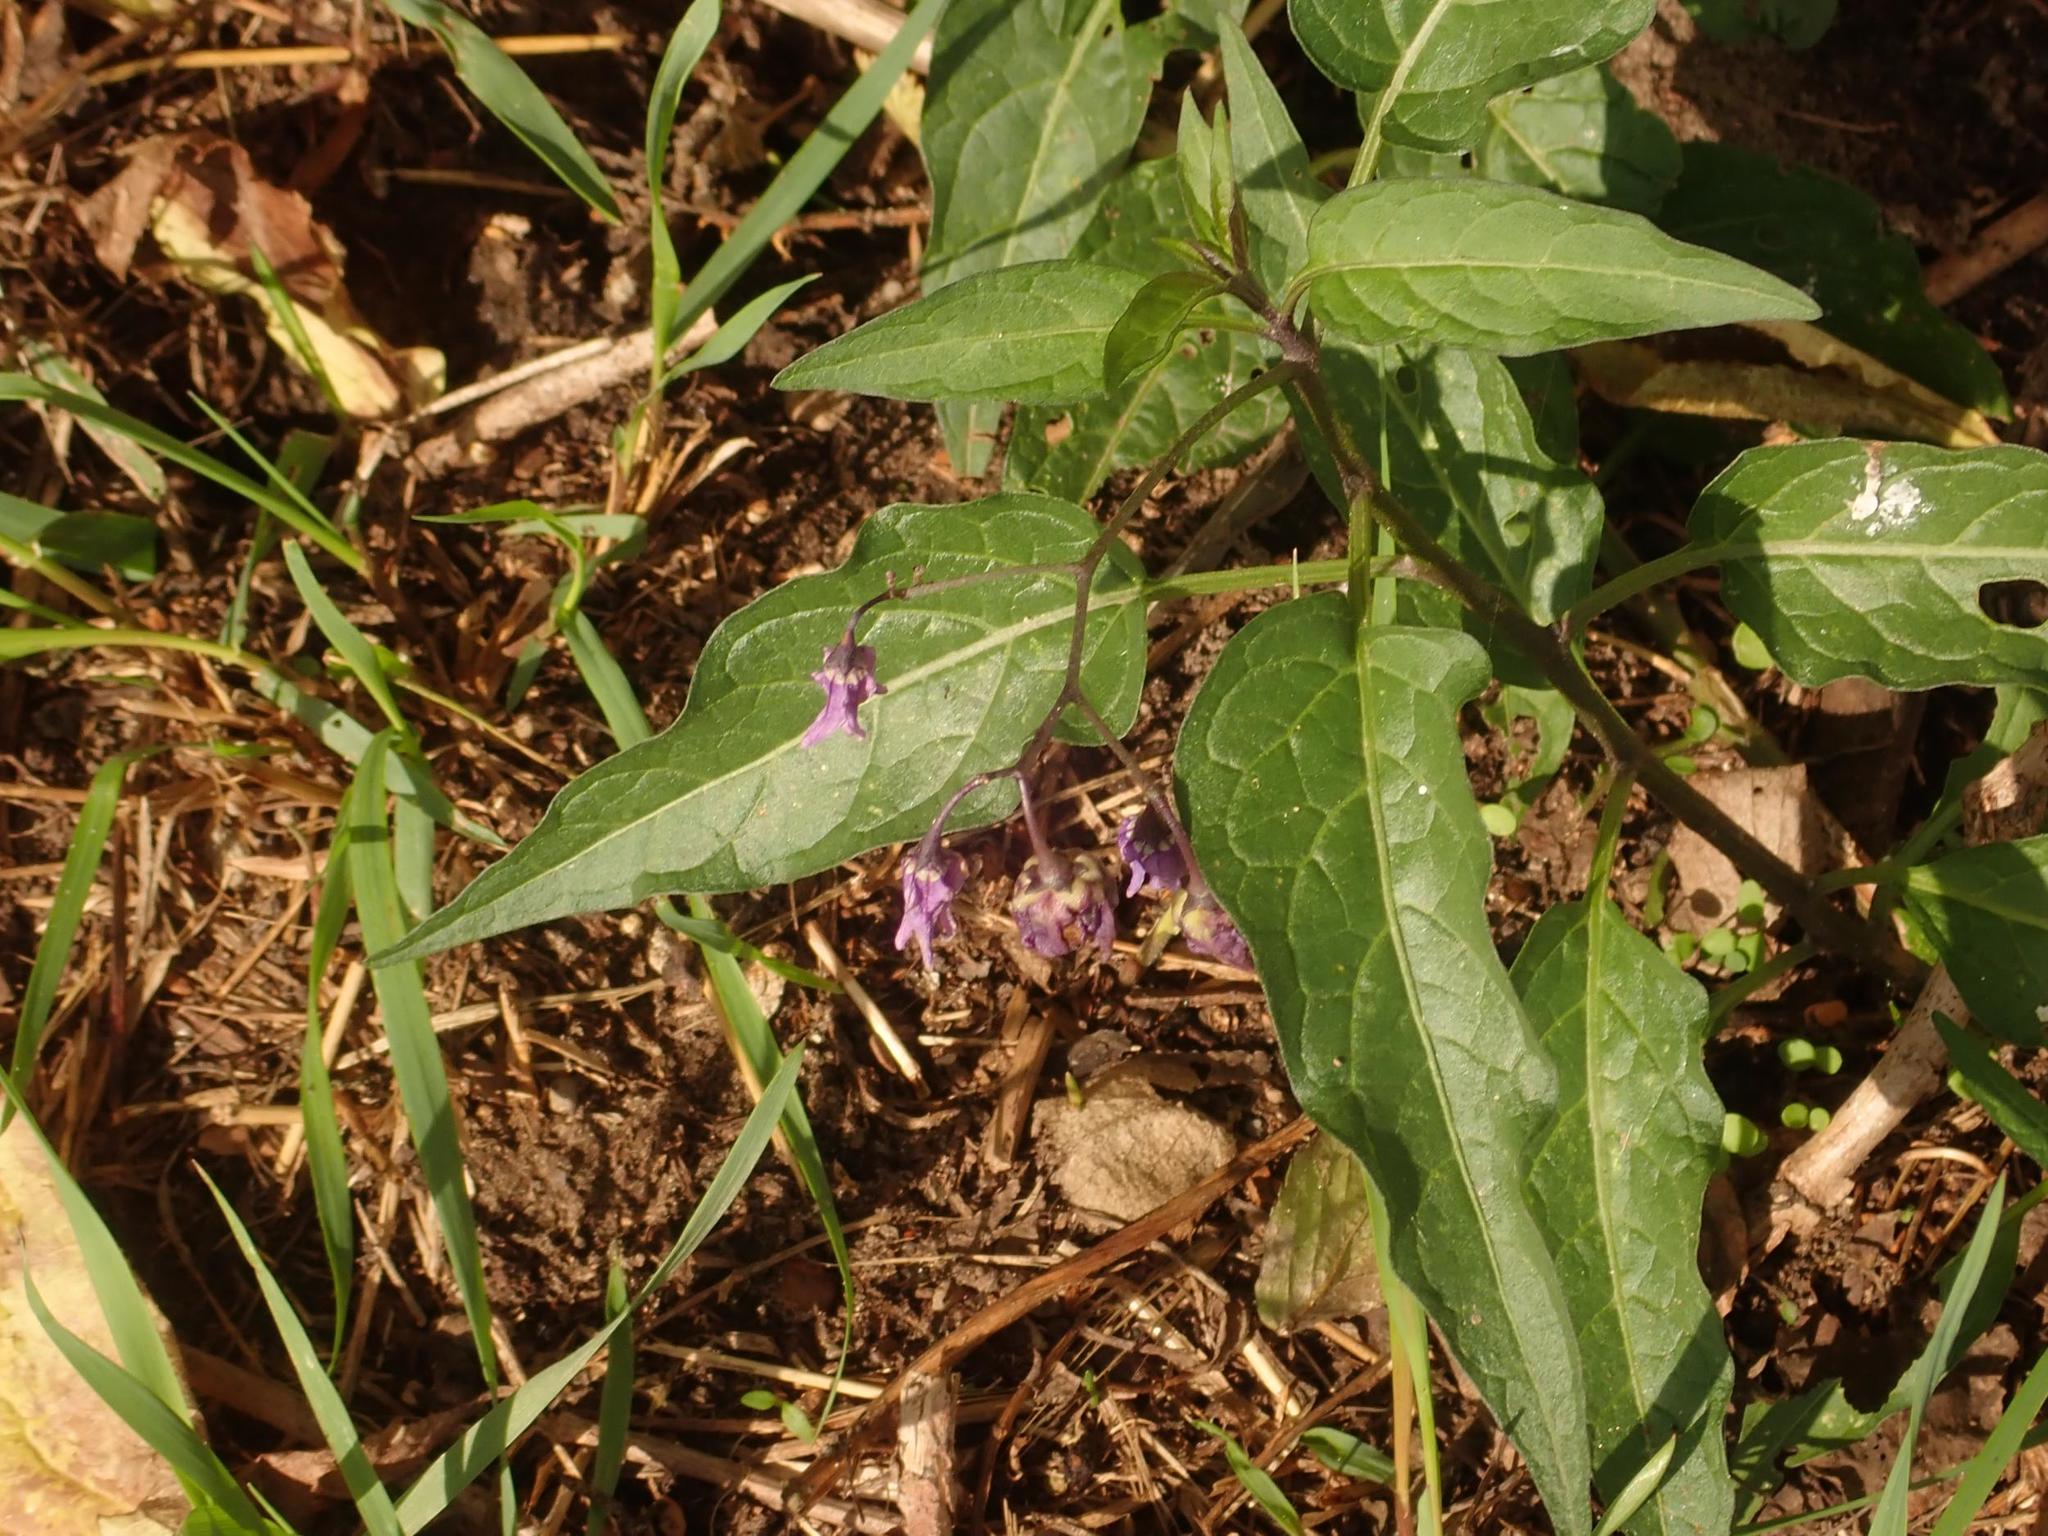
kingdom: Plantae
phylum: Tracheophyta
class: Magnoliopsida
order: Solanales
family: Solanaceae
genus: Solanum
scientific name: Solanum dulcamara
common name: Climbing nightshade
